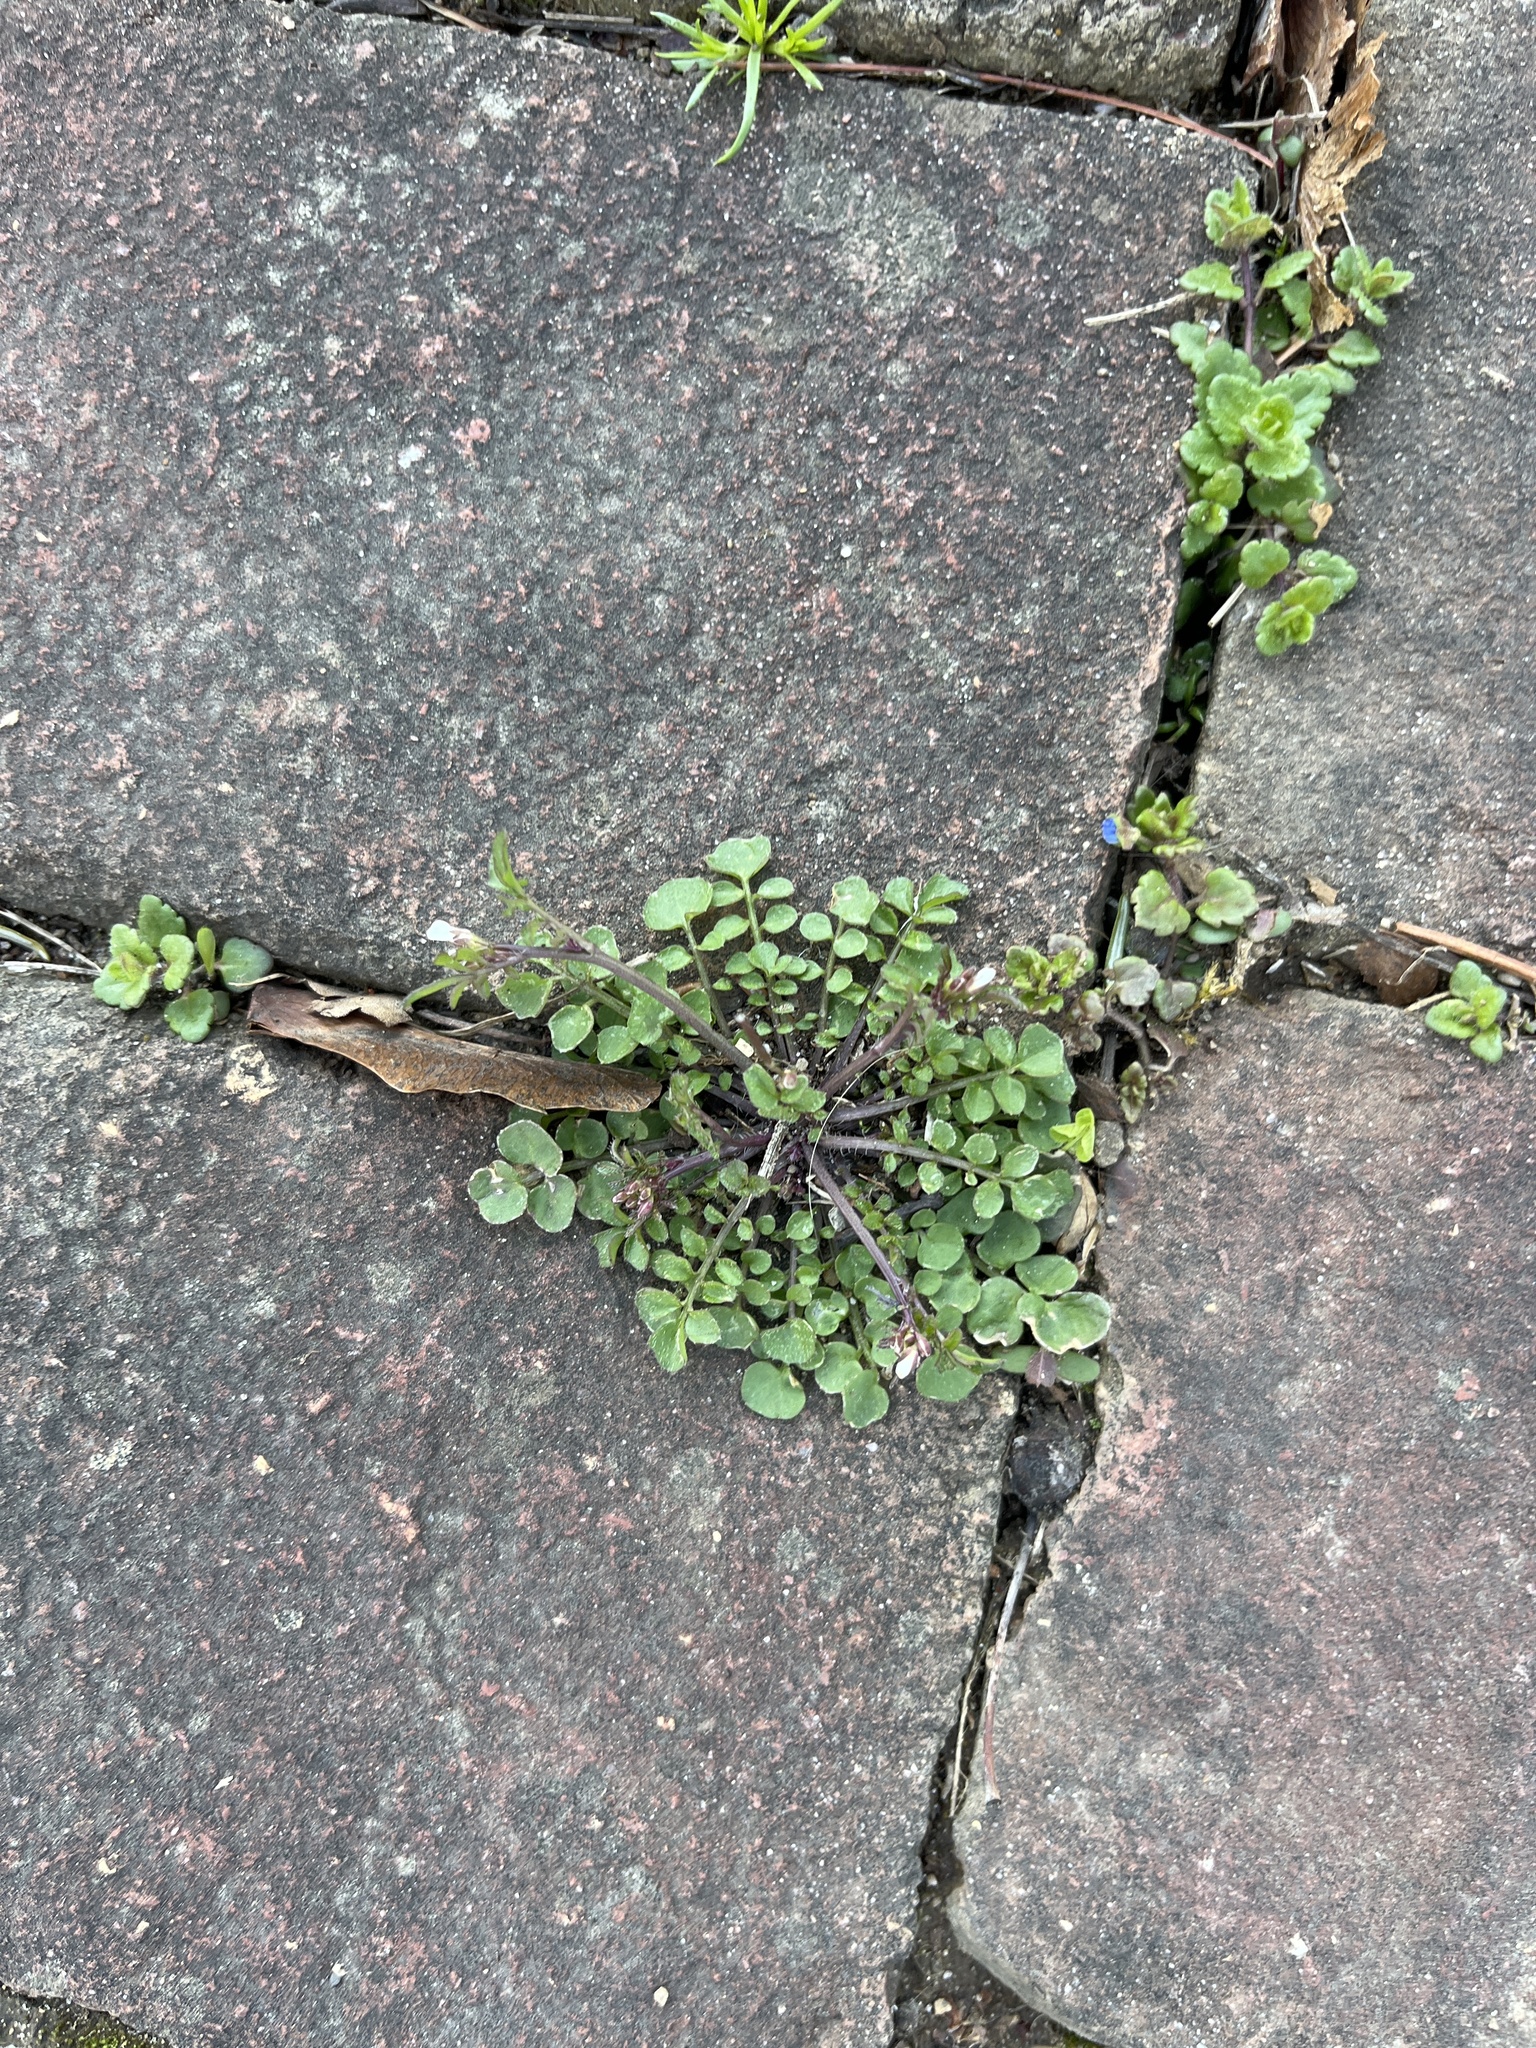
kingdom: Plantae
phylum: Tracheophyta
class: Magnoliopsida
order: Brassicales
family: Brassicaceae
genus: Cardamine
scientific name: Cardamine hirsuta
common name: Hairy bittercress
